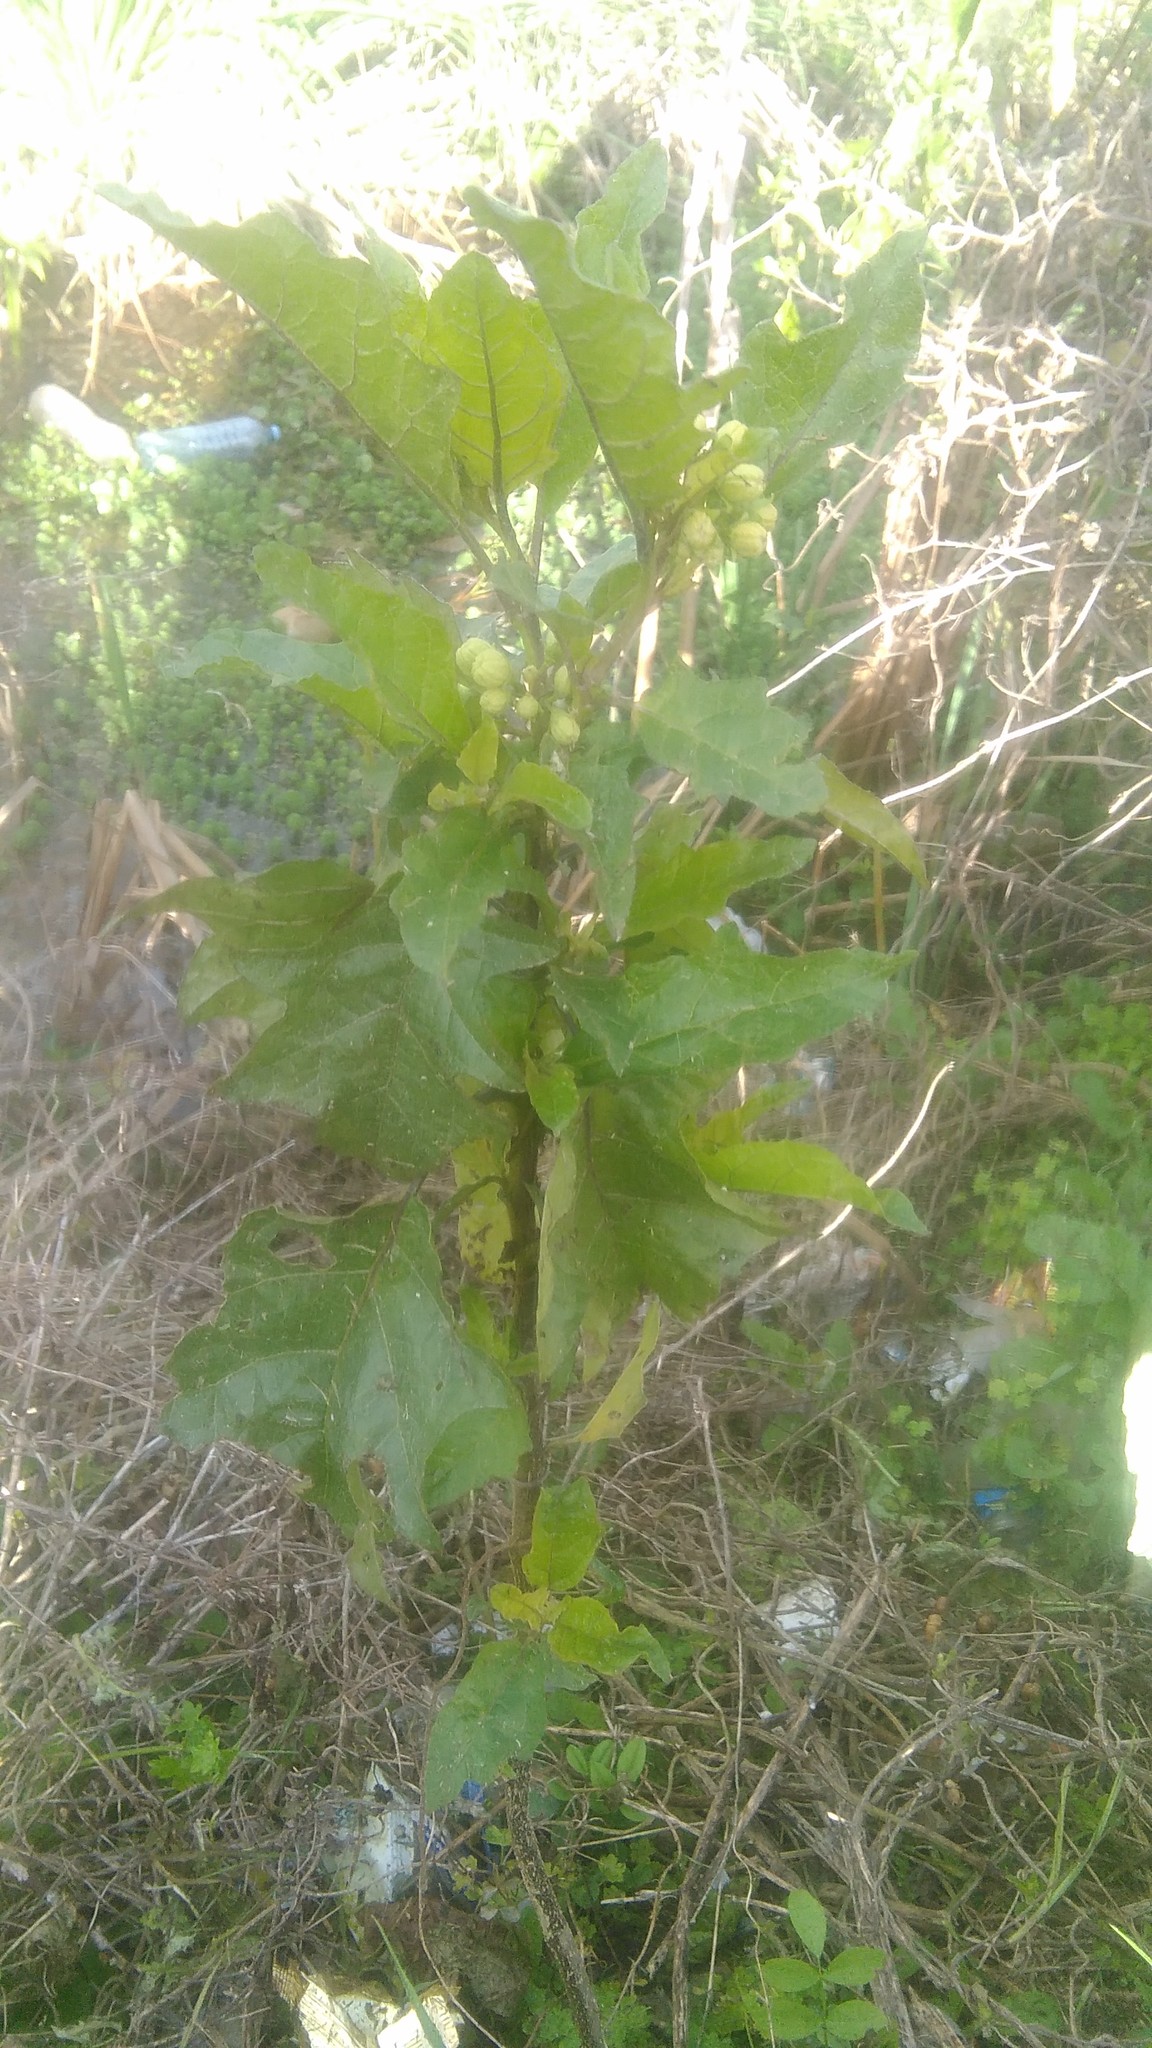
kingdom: Plantae
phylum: Tracheophyta
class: Magnoliopsida
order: Solanales
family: Solanaceae
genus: Solanum
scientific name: Solanum bonariense
